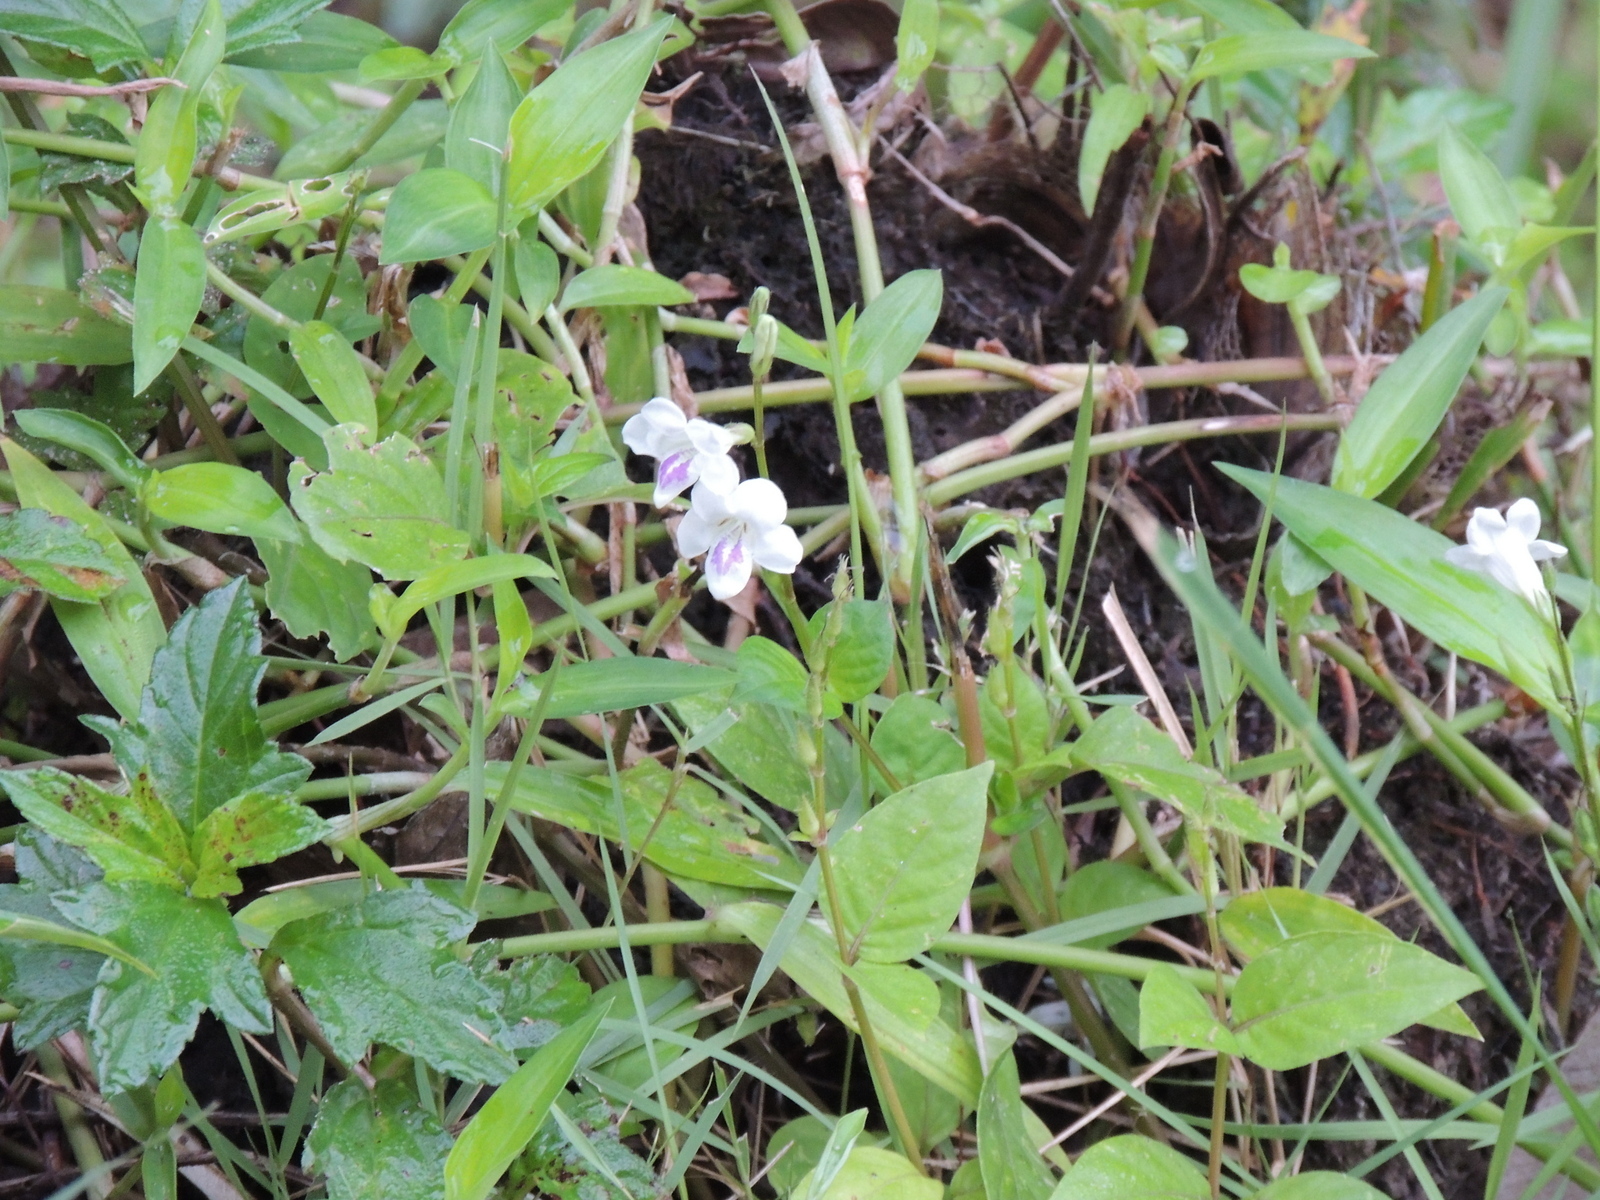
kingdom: Plantae
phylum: Tracheophyta
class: Magnoliopsida
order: Lamiales
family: Acanthaceae
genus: Asystasia
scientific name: Asystasia intrusa
